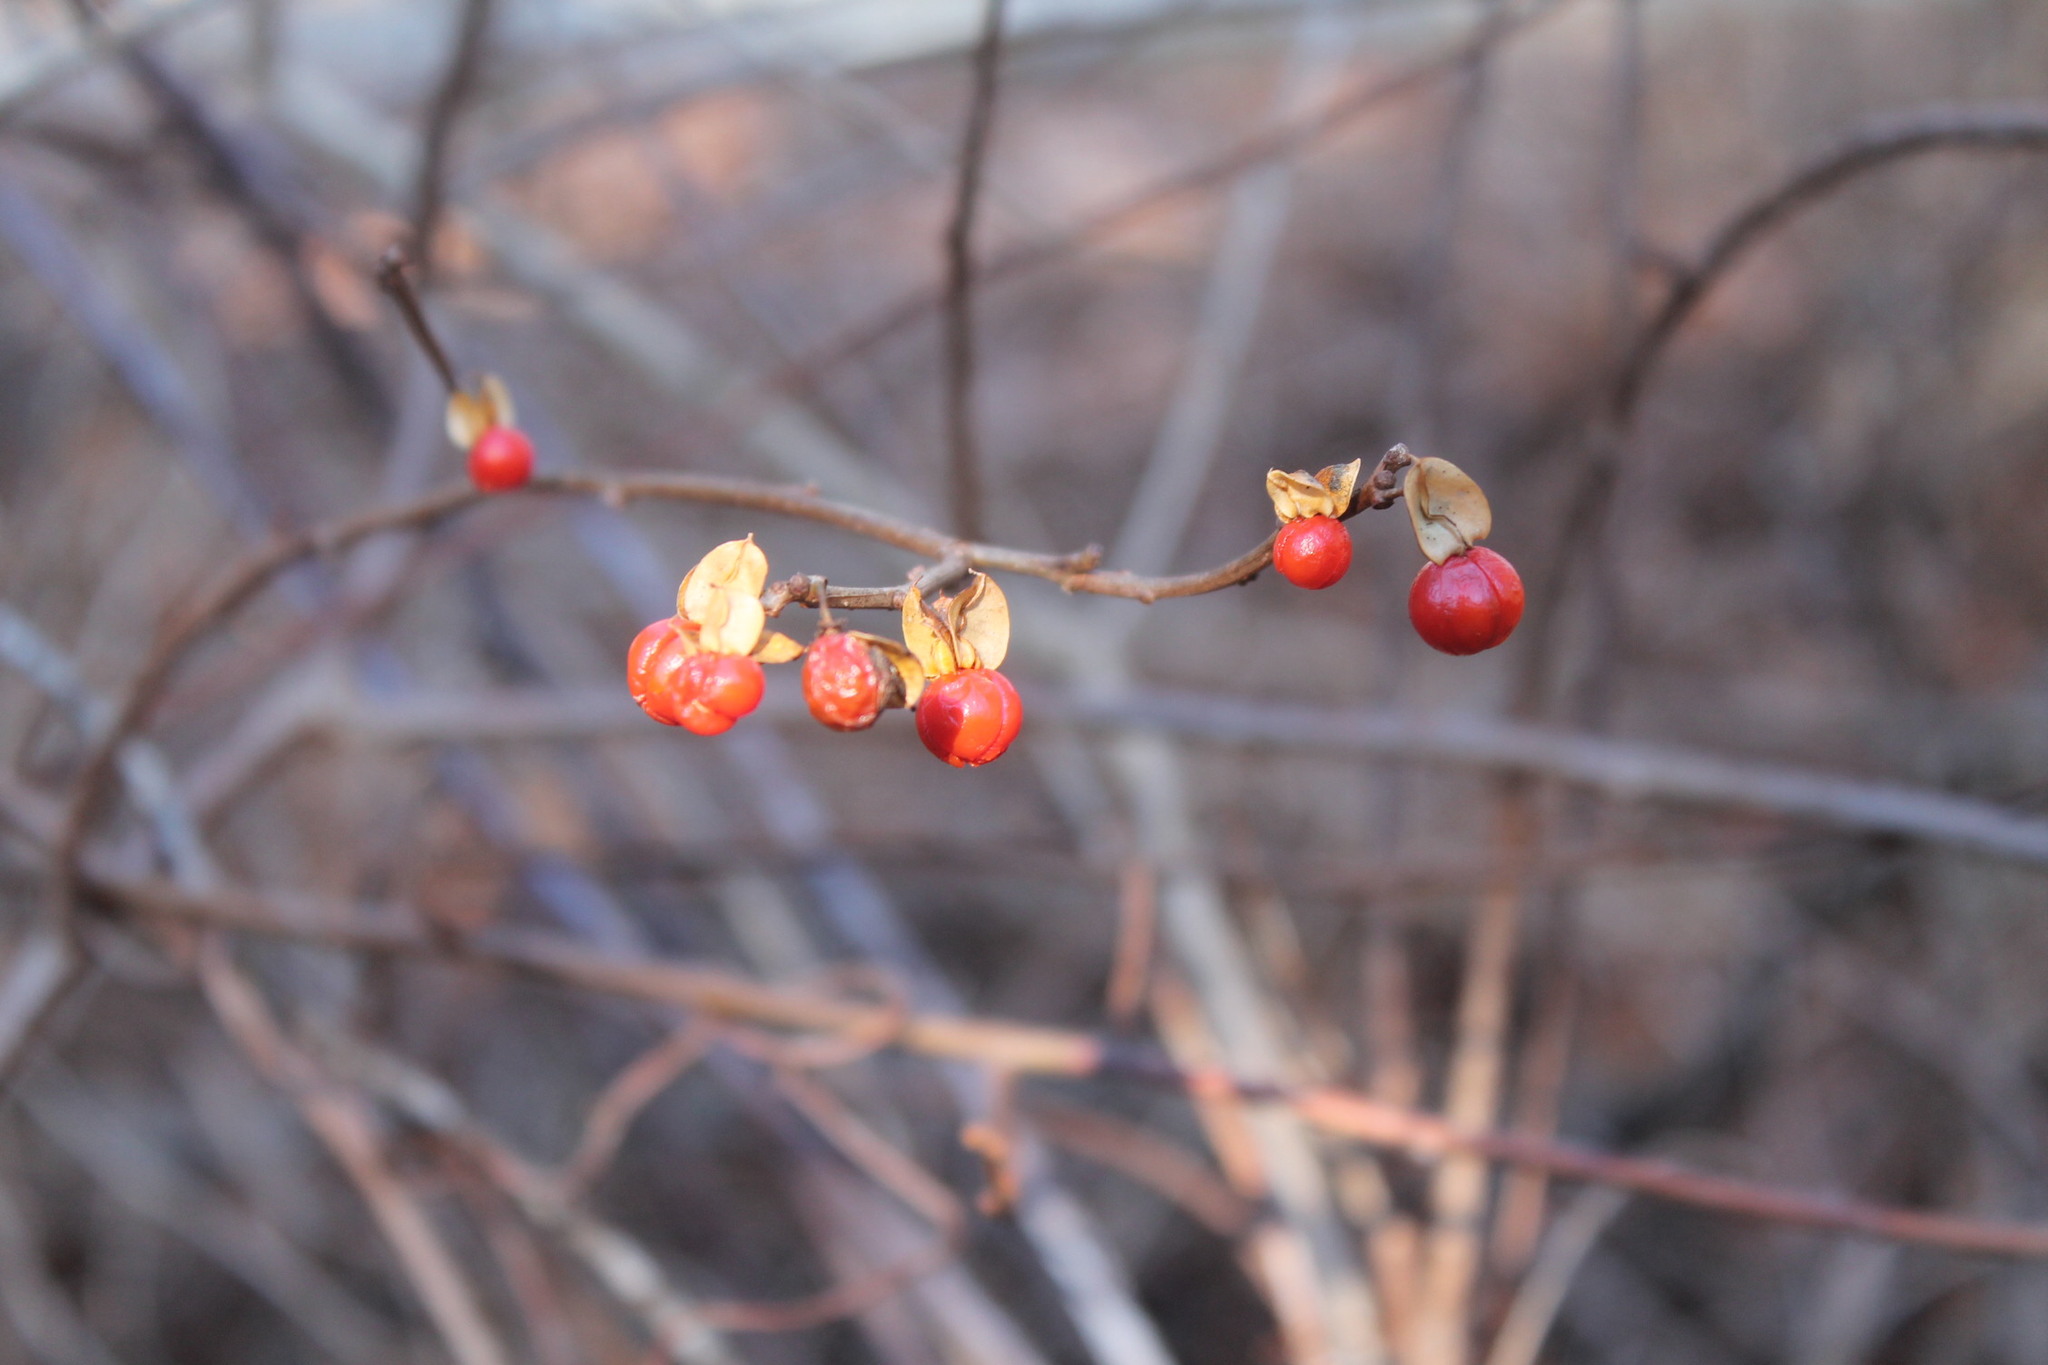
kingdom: Plantae
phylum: Tracheophyta
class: Magnoliopsida
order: Celastrales
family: Celastraceae
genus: Celastrus
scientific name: Celastrus orbiculatus
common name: Oriental bittersweet
